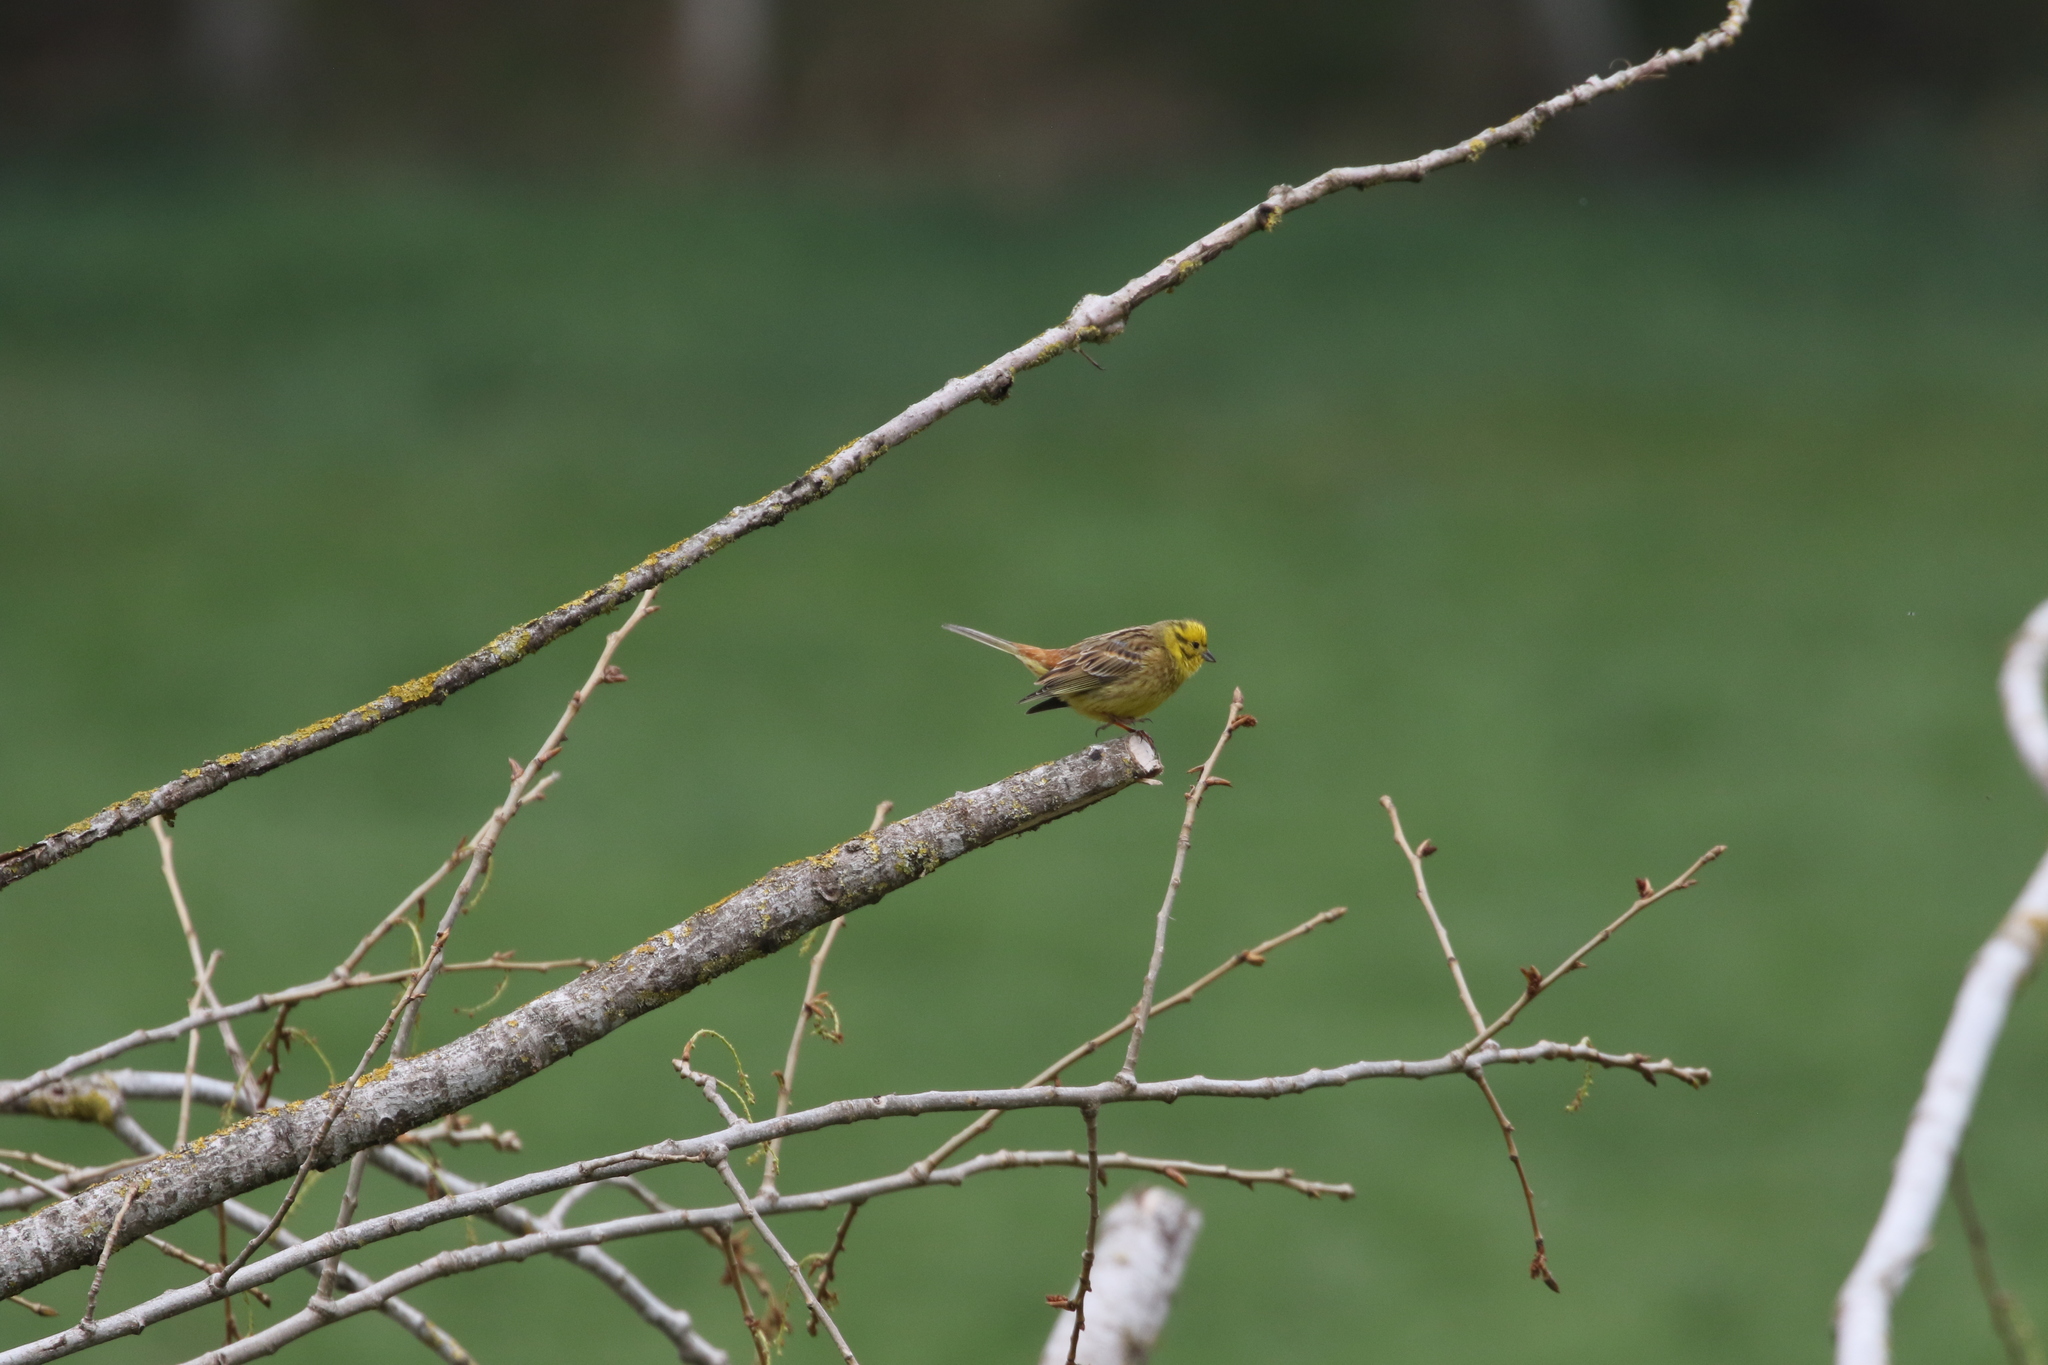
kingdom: Animalia
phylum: Chordata
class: Aves
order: Passeriformes
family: Emberizidae
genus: Emberiza
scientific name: Emberiza citrinella
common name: Yellowhammer
